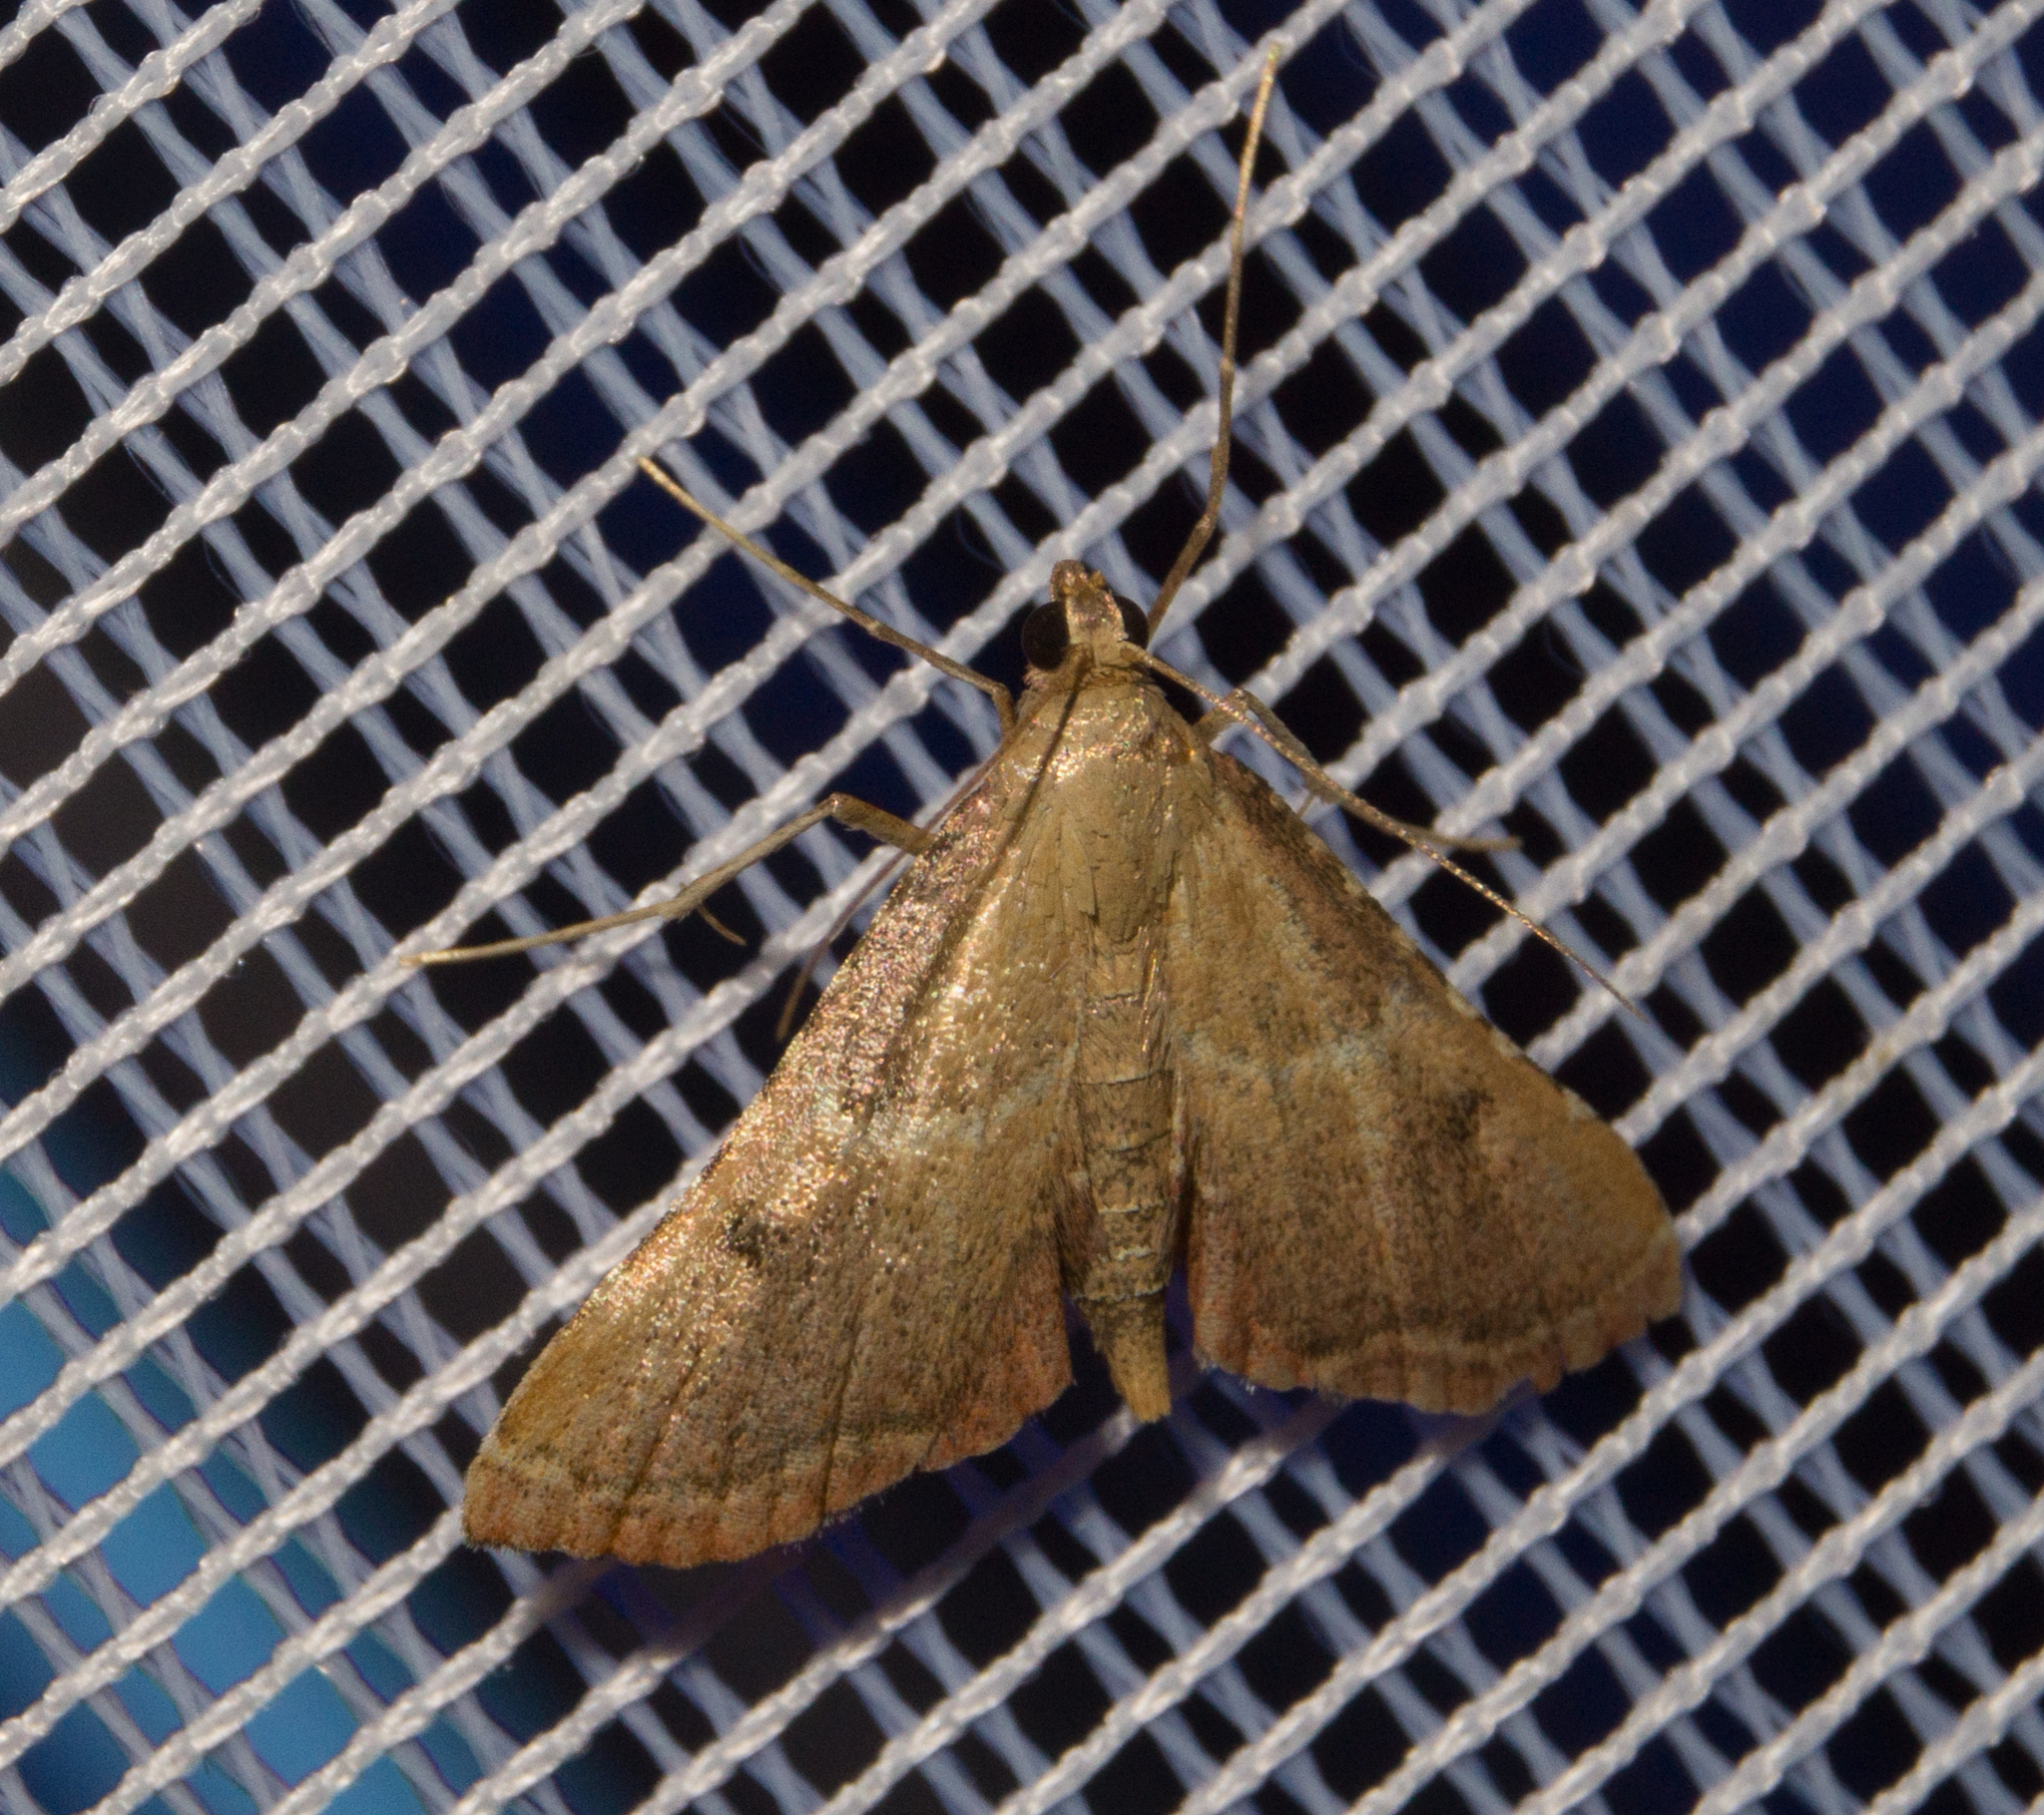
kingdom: Animalia
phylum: Arthropoda
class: Insecta
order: Lepidoptera
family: Pyralidae
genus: Endotricha
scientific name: Endotricha flammealis
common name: Rosy tabby
